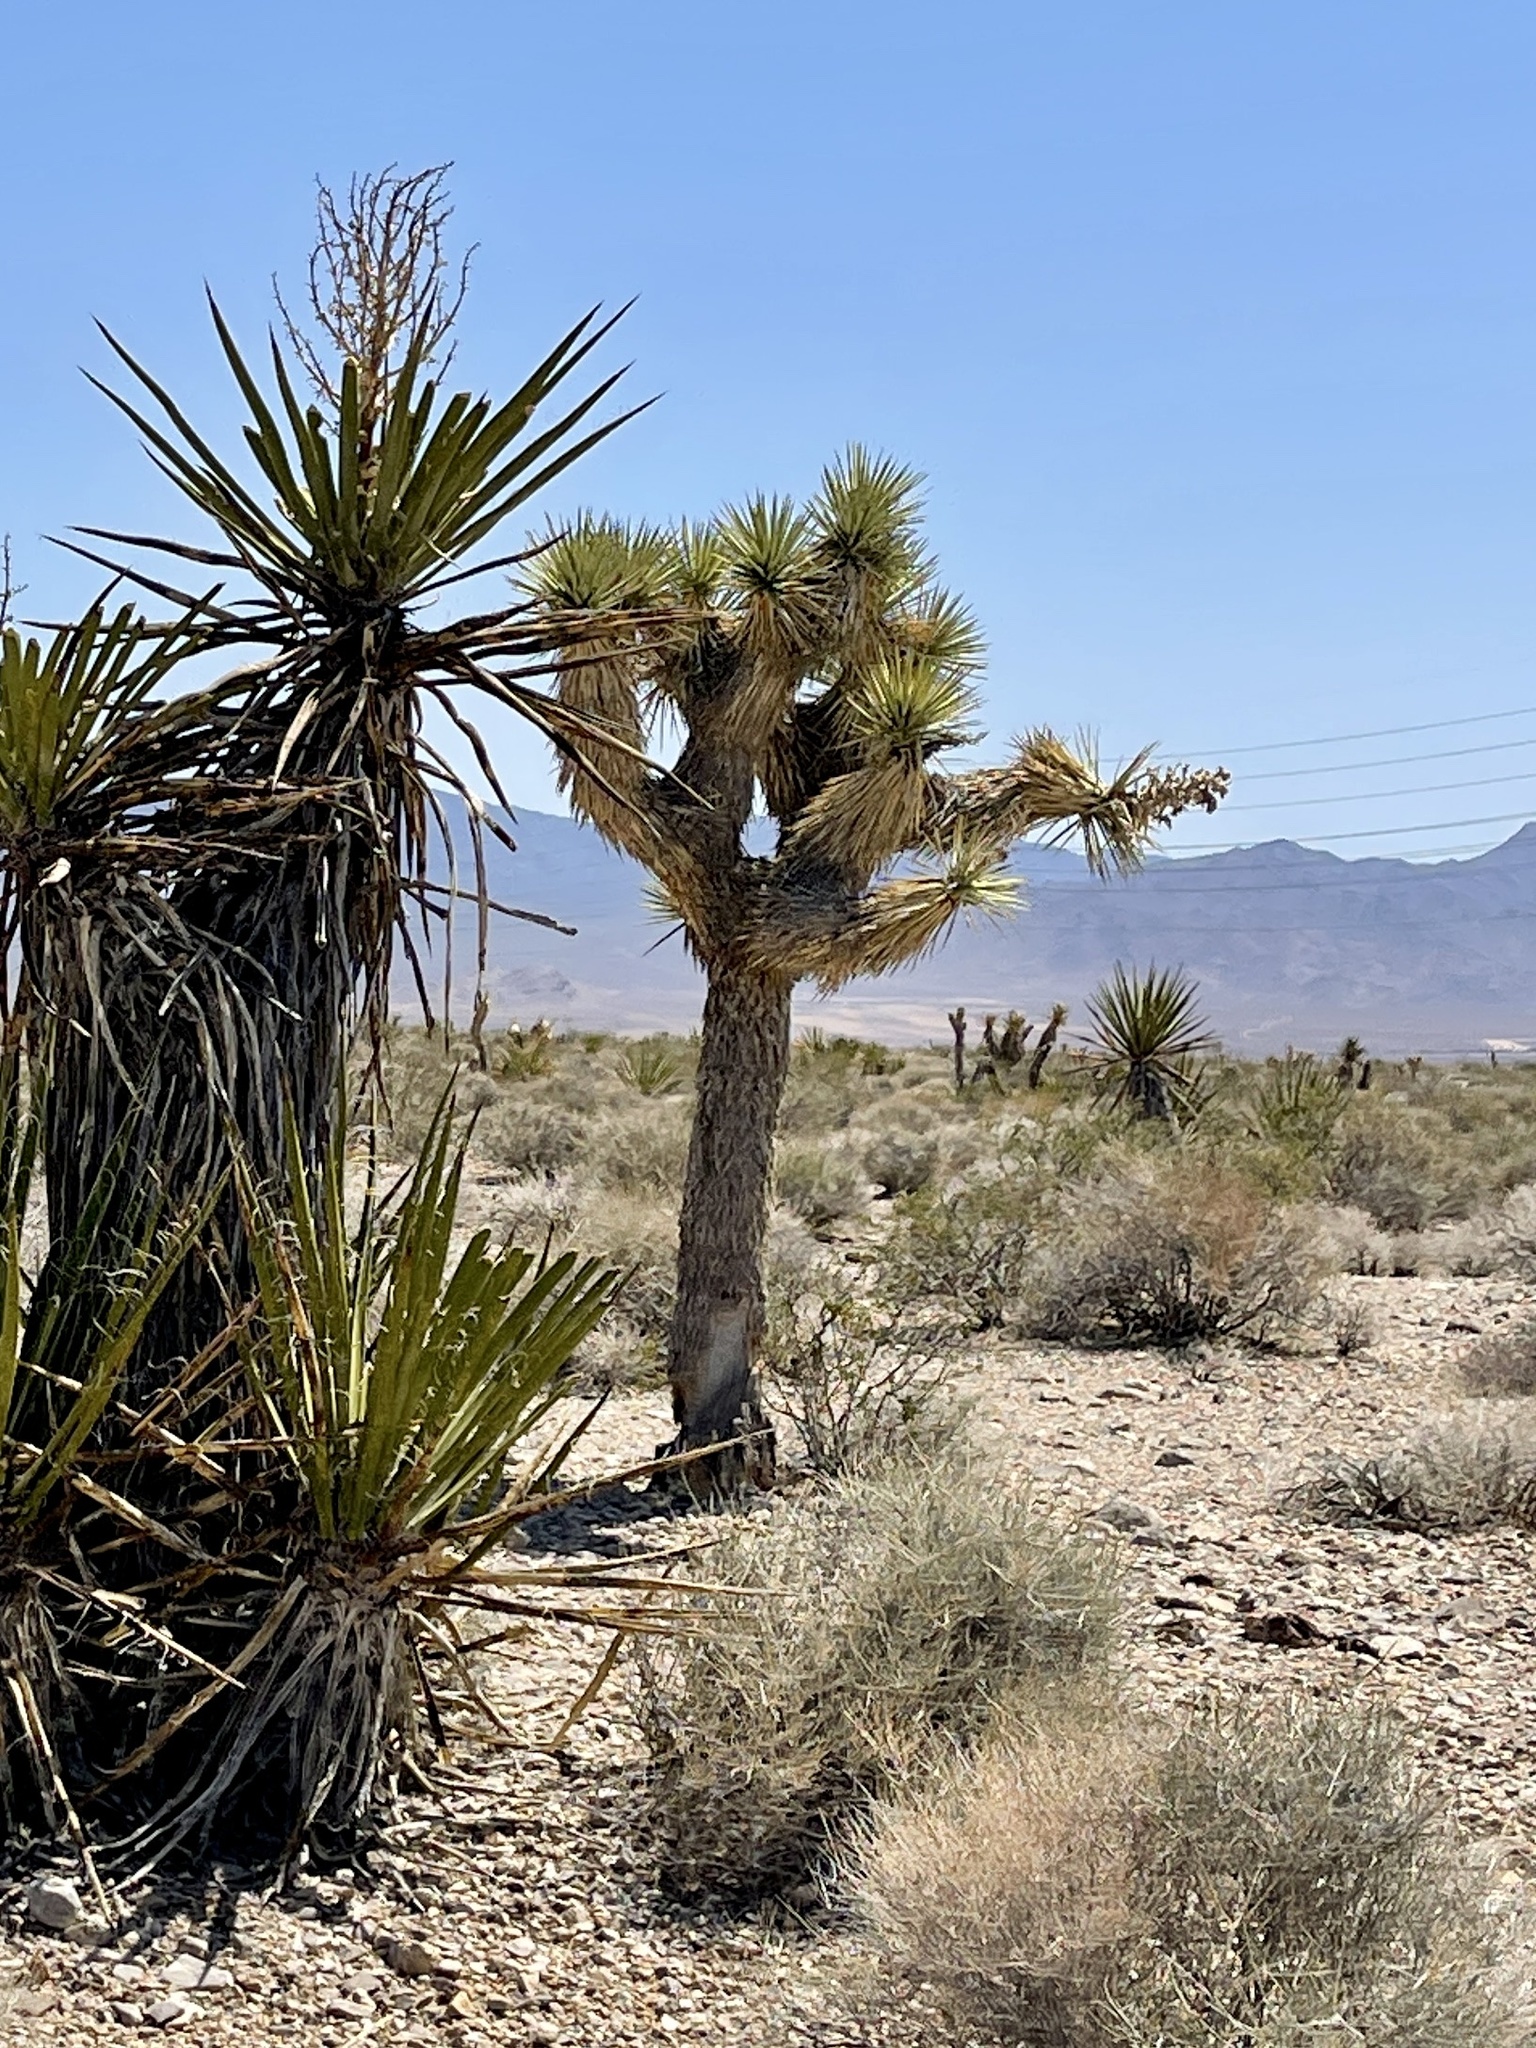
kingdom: Plantae
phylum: Tracheophyta
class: Liliopsida
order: Asparagales
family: Asparagaceae
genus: Yucca
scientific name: Yucca schidigera
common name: Mojave yucca
